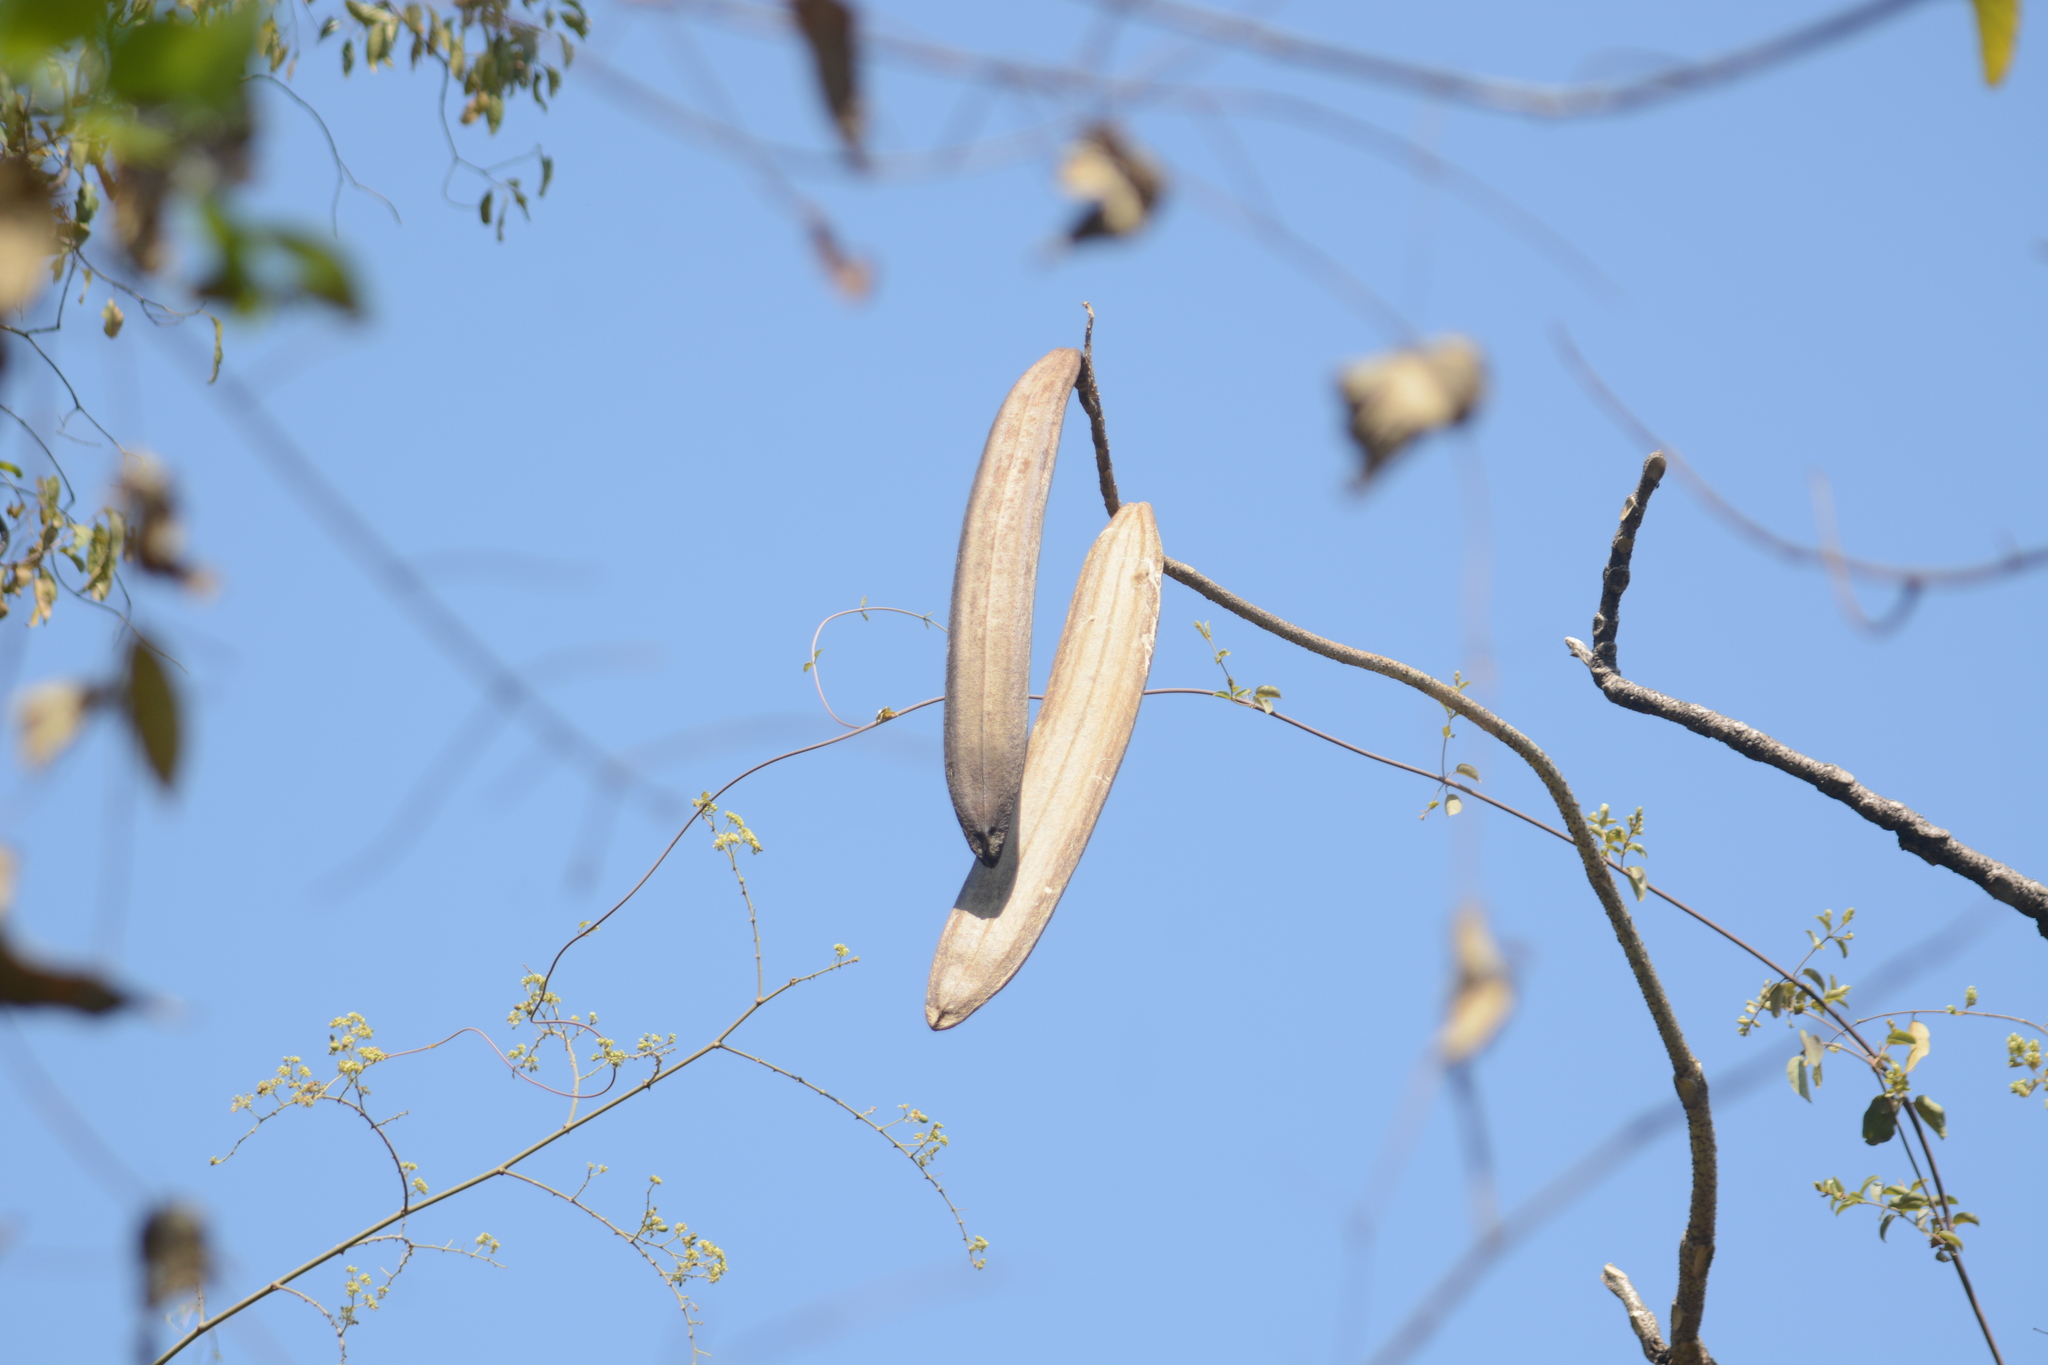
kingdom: Plantae
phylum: Tracheophyta
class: Magnoliopsida
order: Lamiales
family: Bignoniaceae
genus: Oroxylum
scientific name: Oroxylum indicum
